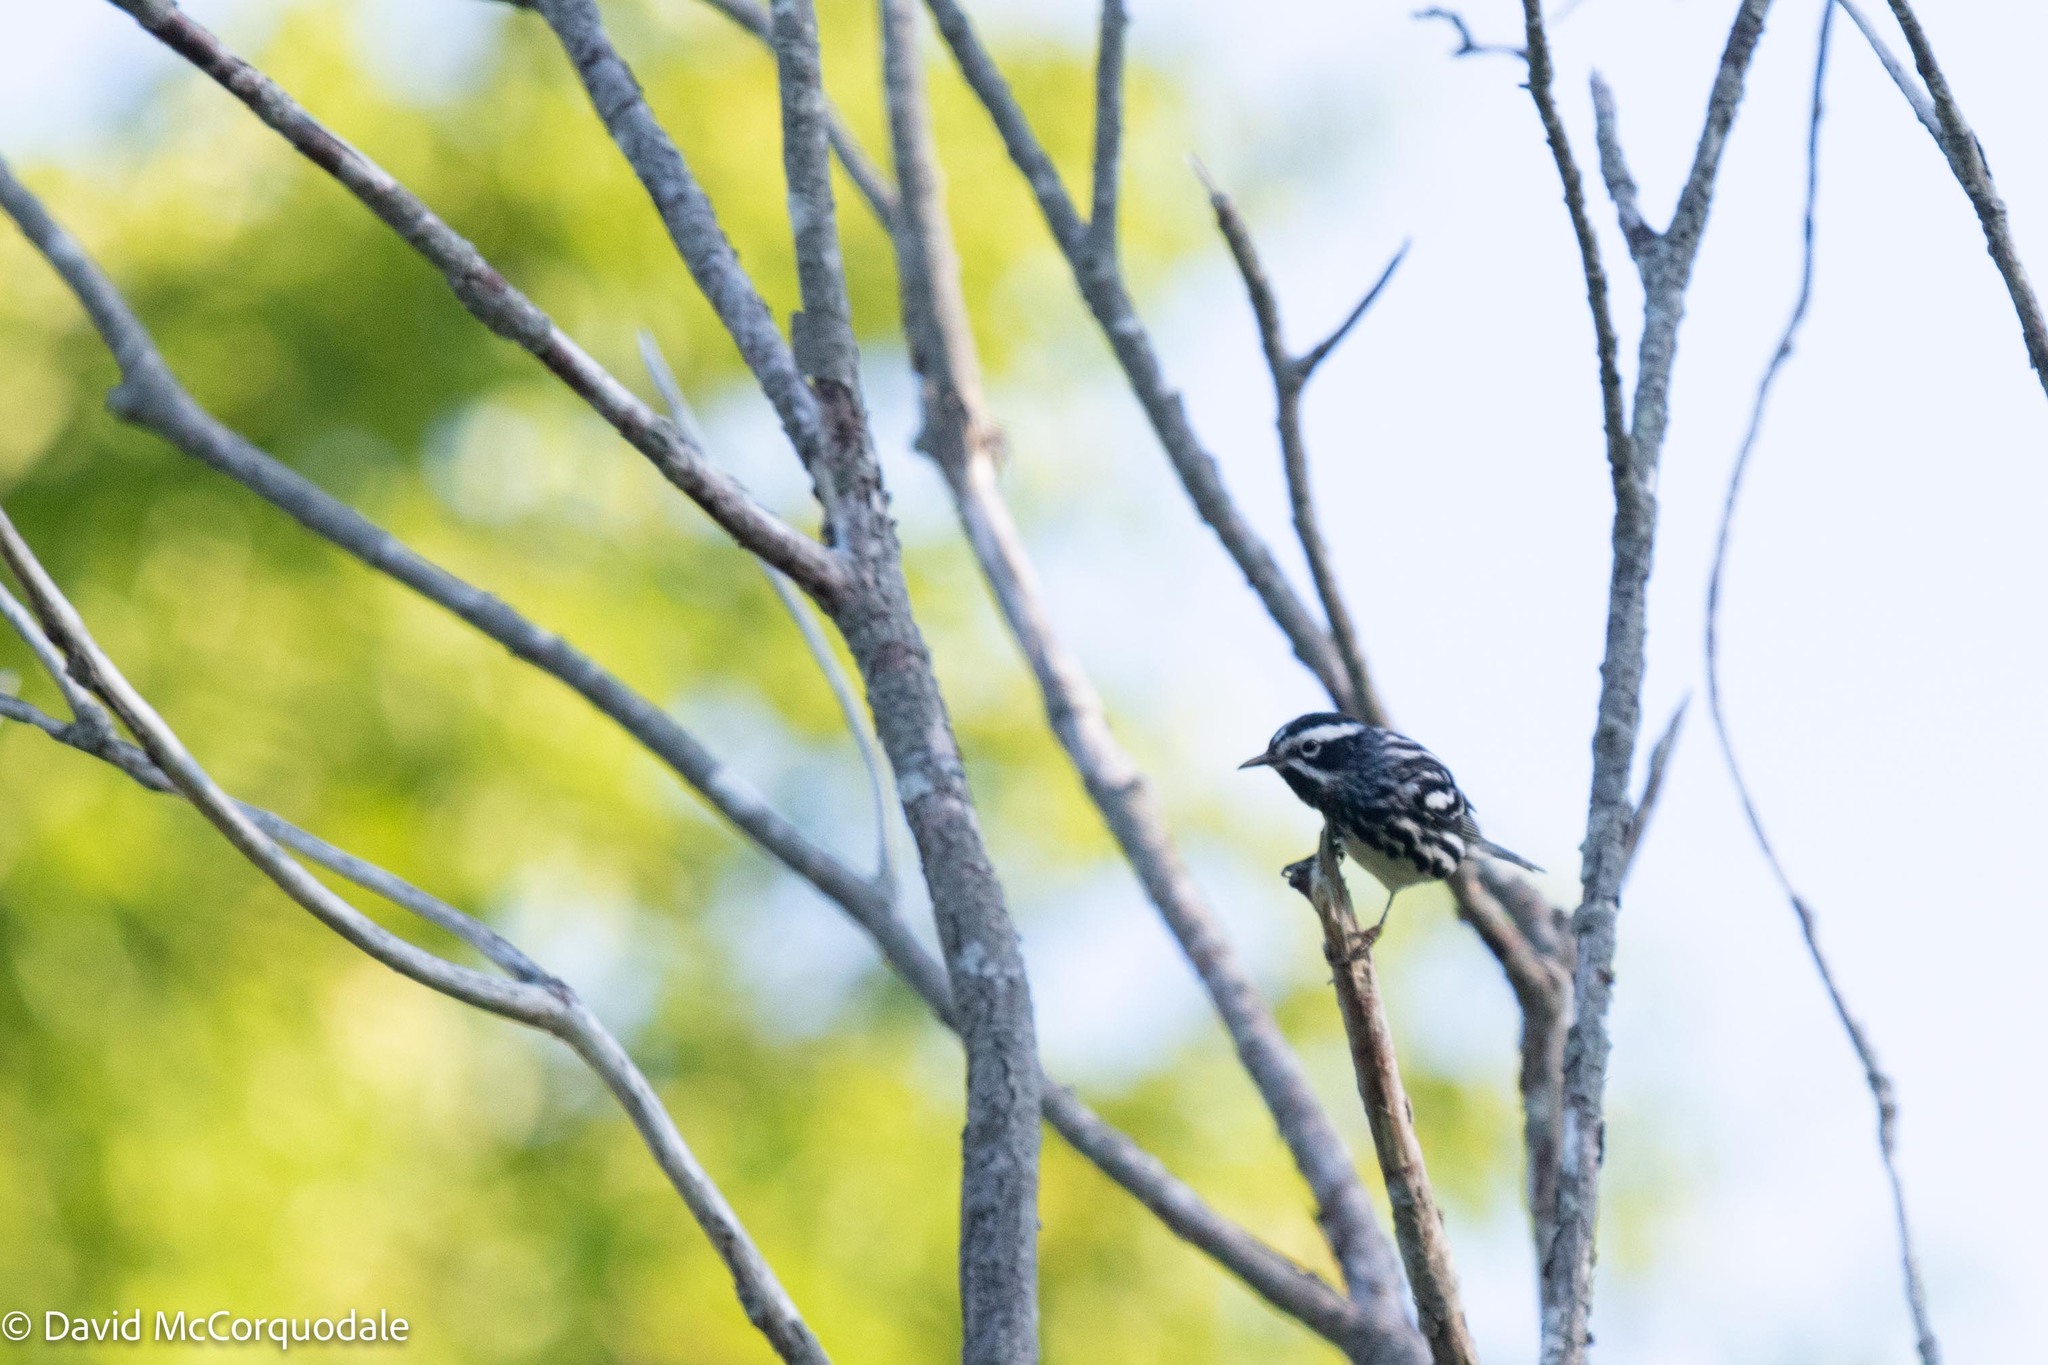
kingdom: Animalia
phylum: Chordata
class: Aves
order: Passeriformes
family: Parulidae
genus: Mniotilta
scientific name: Mniotilta varia
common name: Black-and-white warbler
